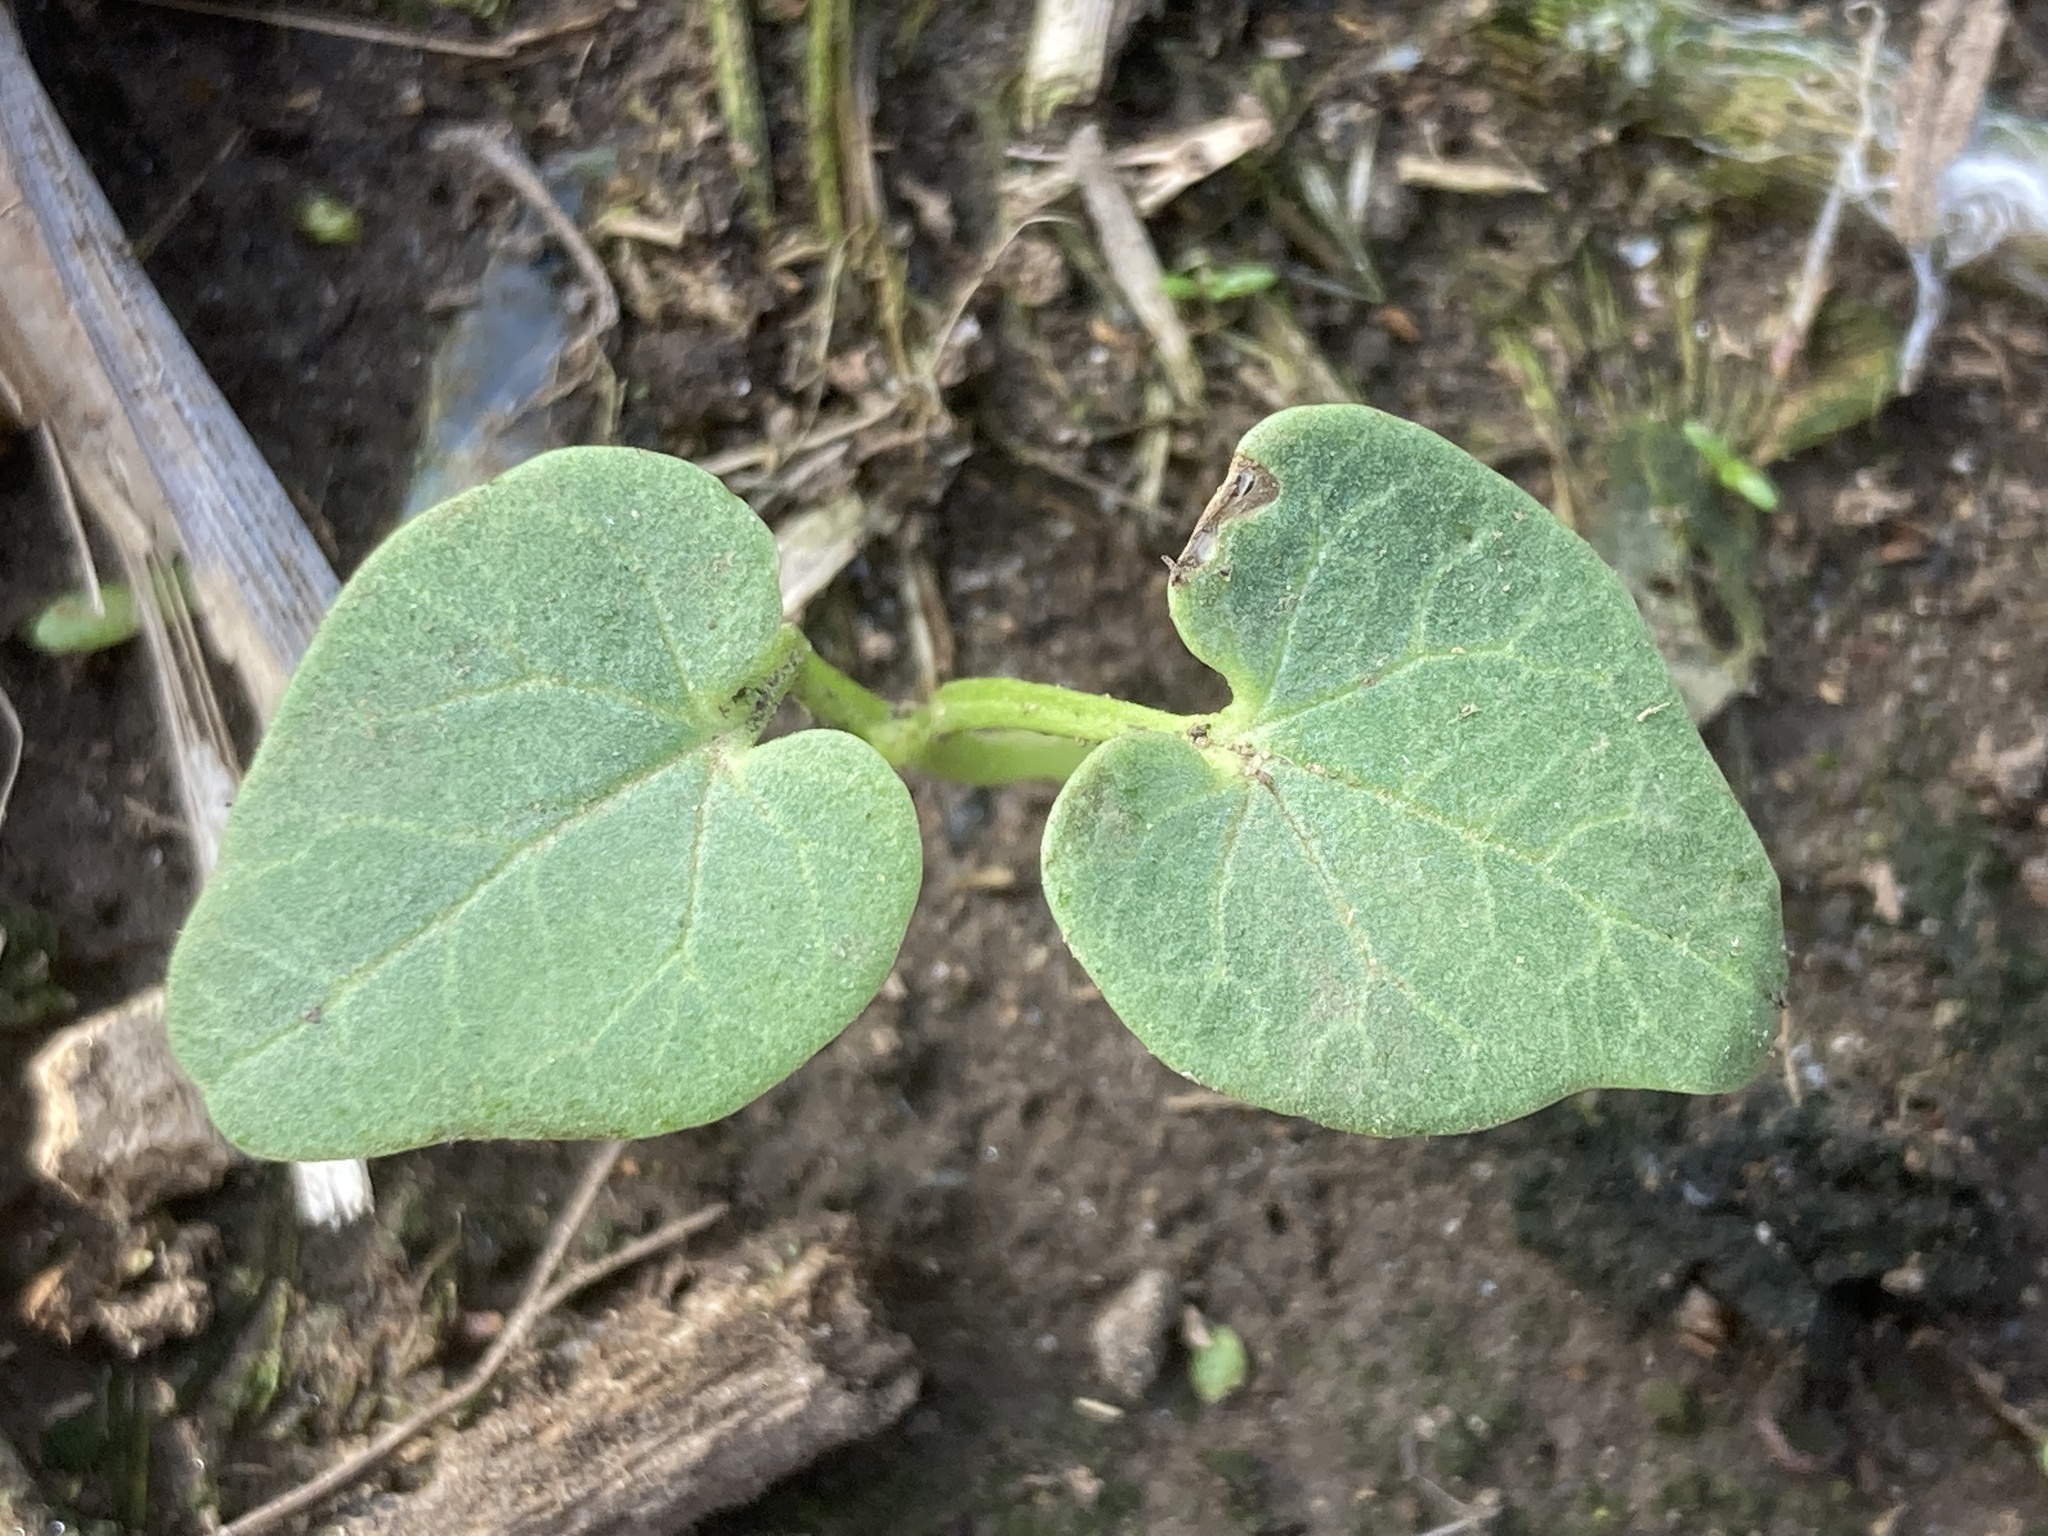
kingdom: Plantae
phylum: Tracheophyta
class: Magnoliopsida
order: Malvales
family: Malvaceae
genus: Malva
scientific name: Malva assurgentiflora
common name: Island mallow
